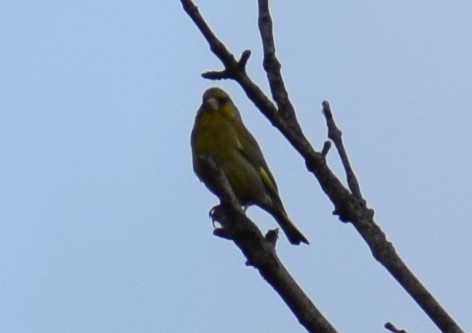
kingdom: Plantae
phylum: Tracheophyta
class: Liliopsida
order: Poales
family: Poaceae
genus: Chloris
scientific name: Chloris chloris
